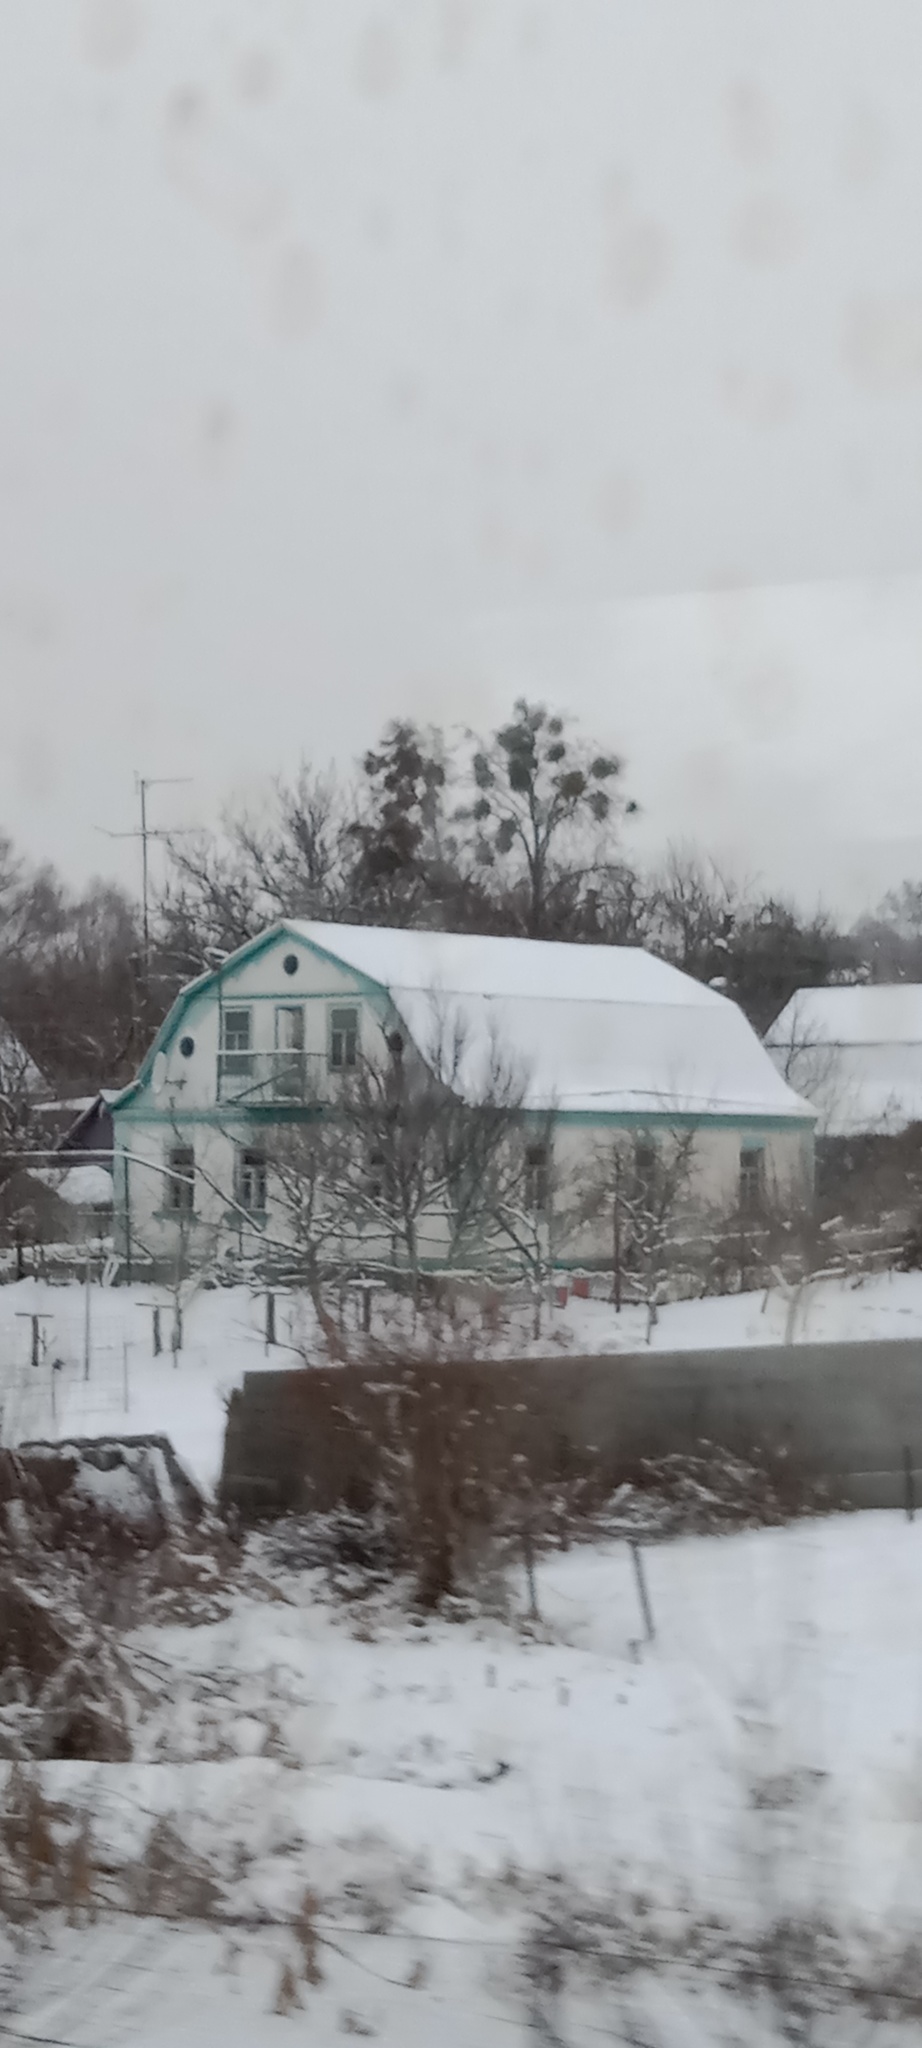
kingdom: Plantae
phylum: Tracheophyta
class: Magnoliopsida
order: Santalales
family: Viscaceae
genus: Viscum
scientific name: Viscum album
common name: Mistletoe
